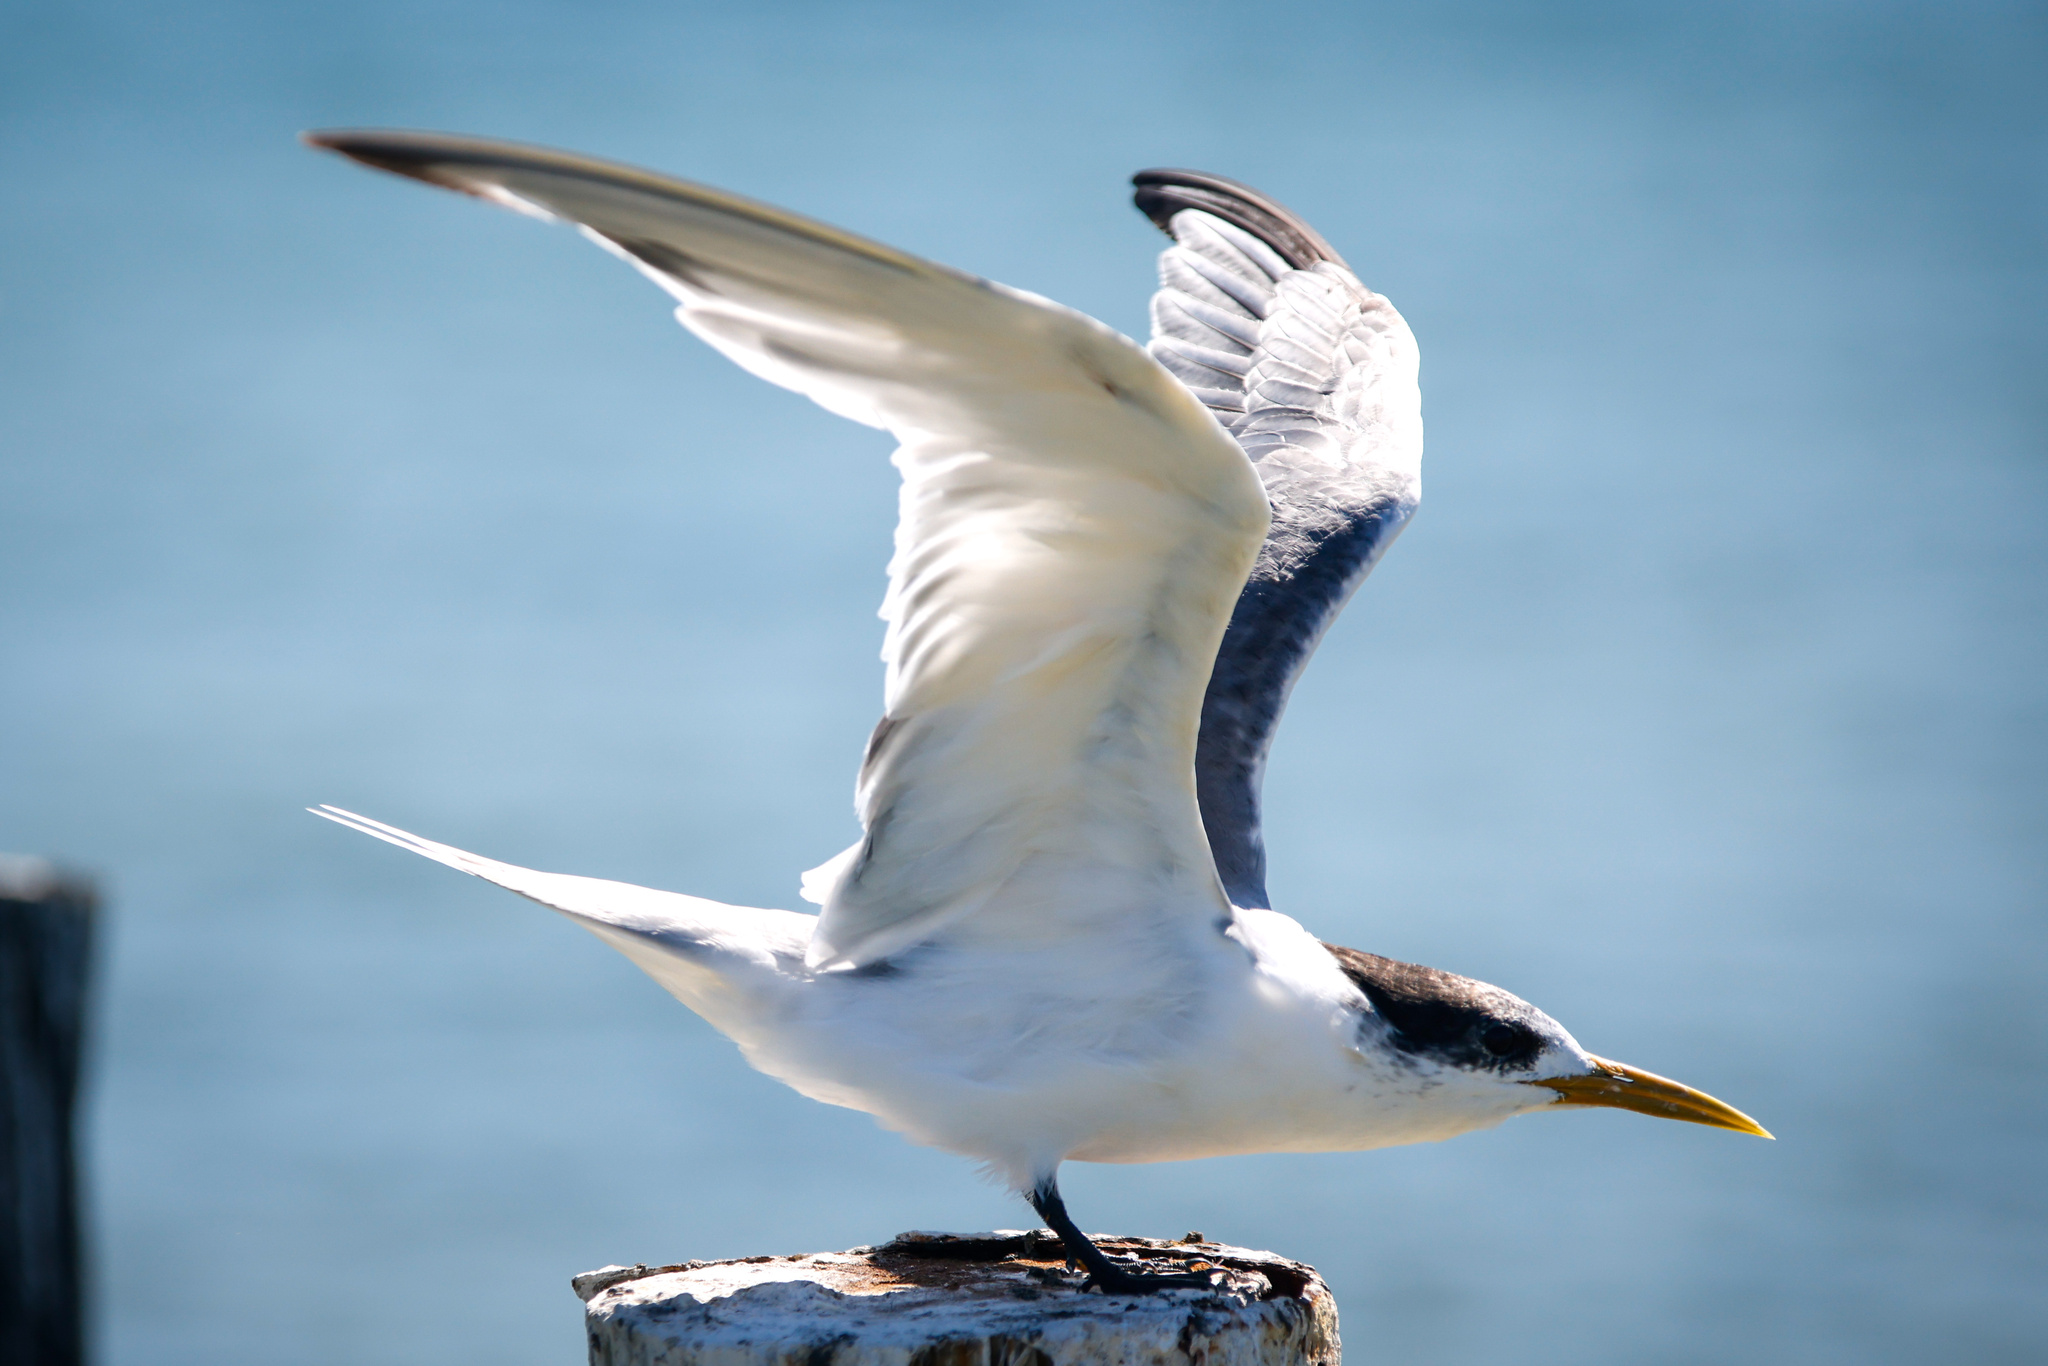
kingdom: Animalia
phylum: Chordata
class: Aves
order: Charadriiformes
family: Laridae
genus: Thalasseus
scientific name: Thalasseus bergii
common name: Greater crested tern
